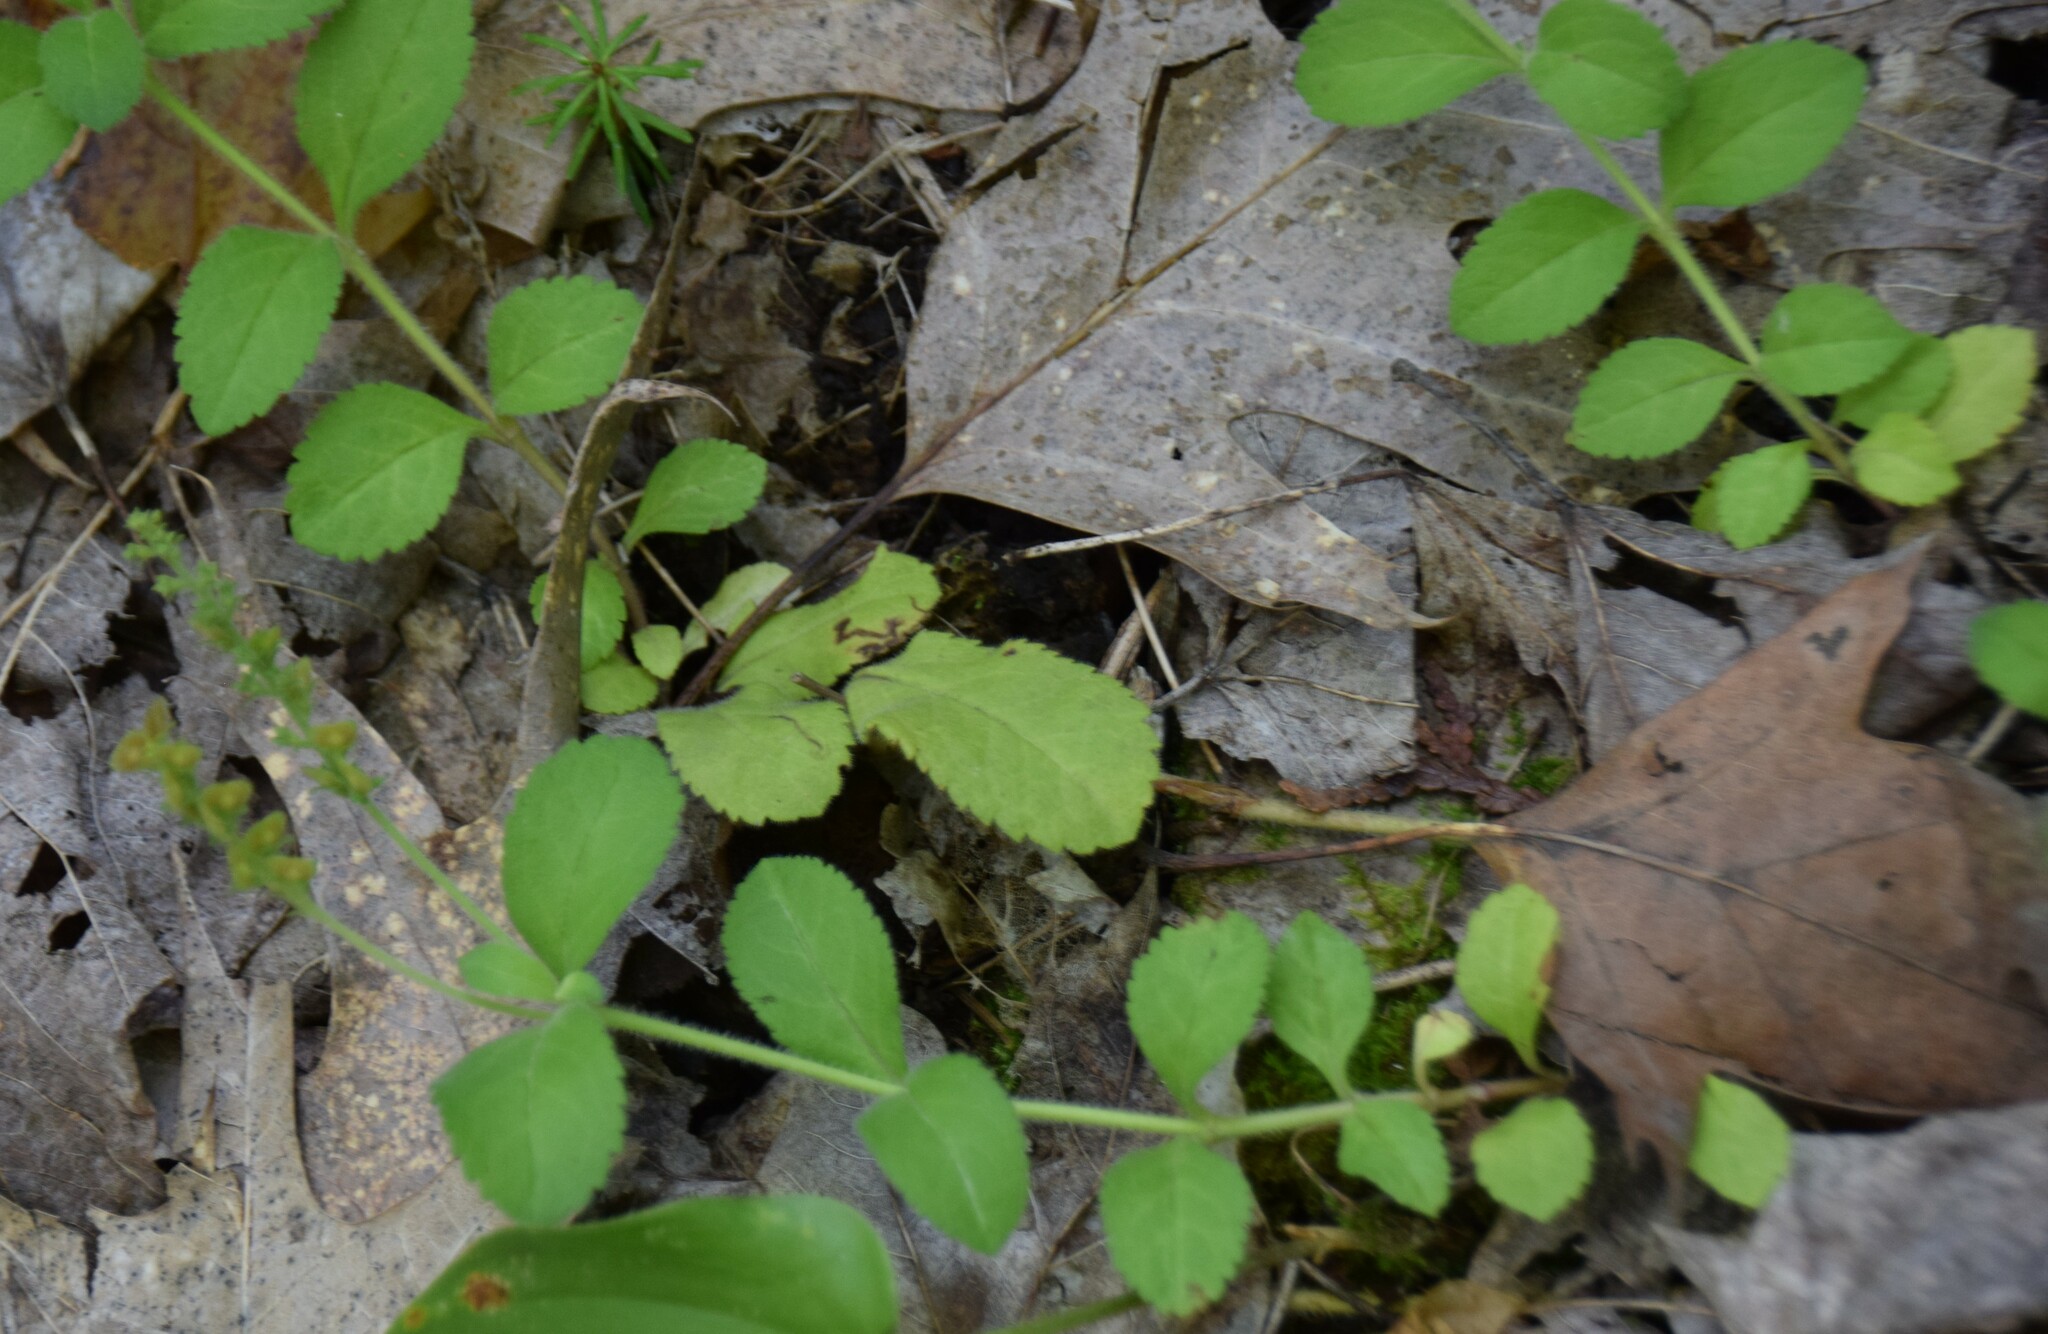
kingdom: Plantae
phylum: Tracheophyta
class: Magnoliopsida
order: Lamiales
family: Plantaginaceae
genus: Veronica
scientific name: Veronica officinalis
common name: Common speedwell
